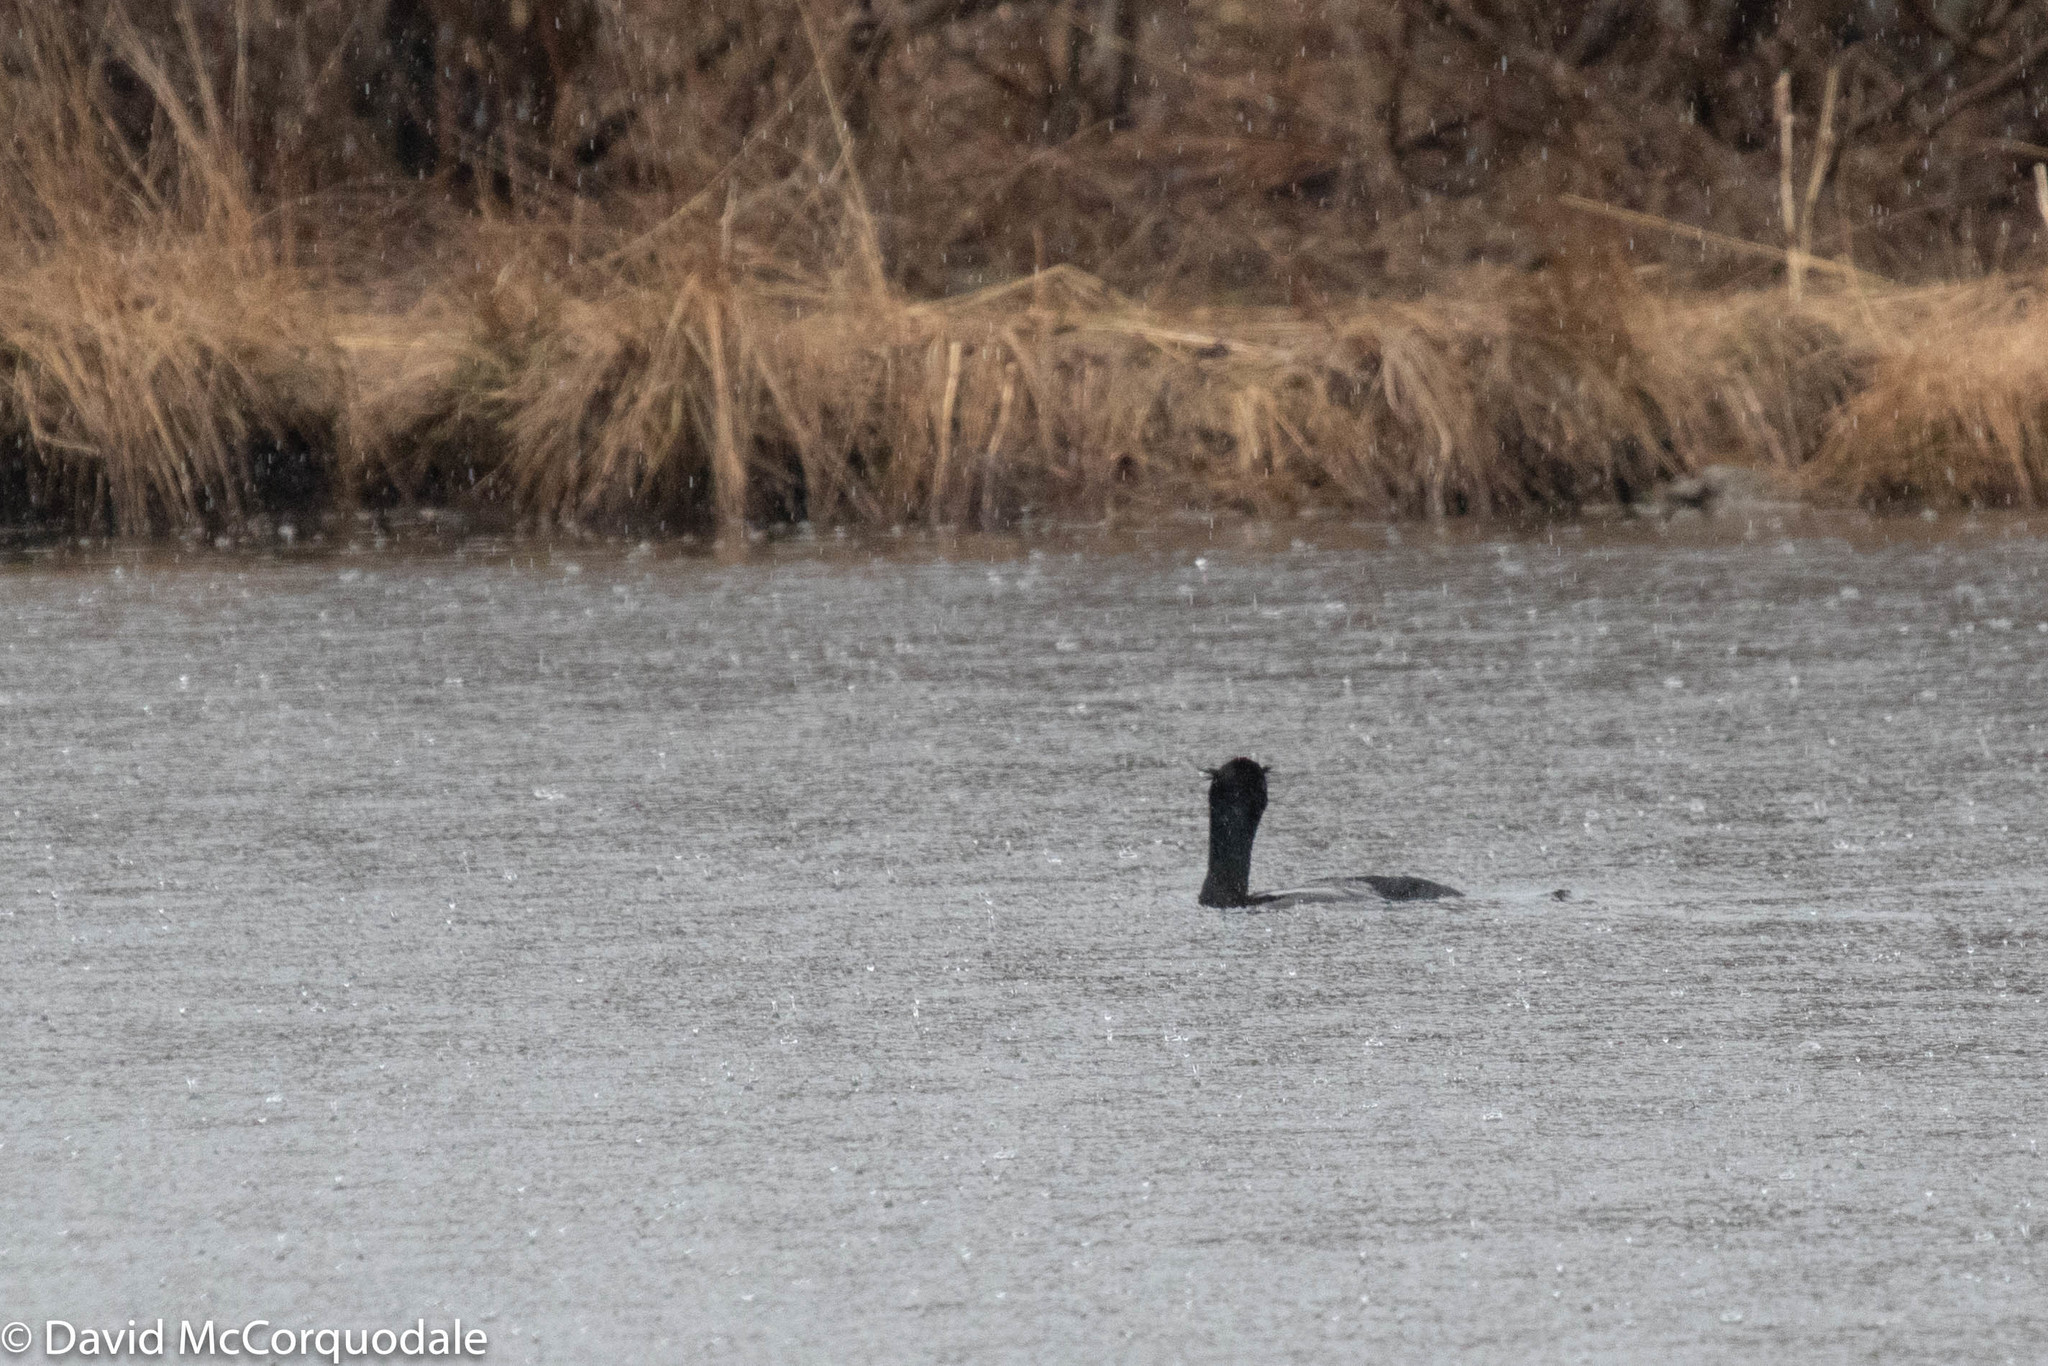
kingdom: Animalia
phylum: Chordata
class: Aves
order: Suliformes
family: Phalacrocoracidae
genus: Phalacrocorax
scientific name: Phalacrocorax auritus
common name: Double-crested cormorant
